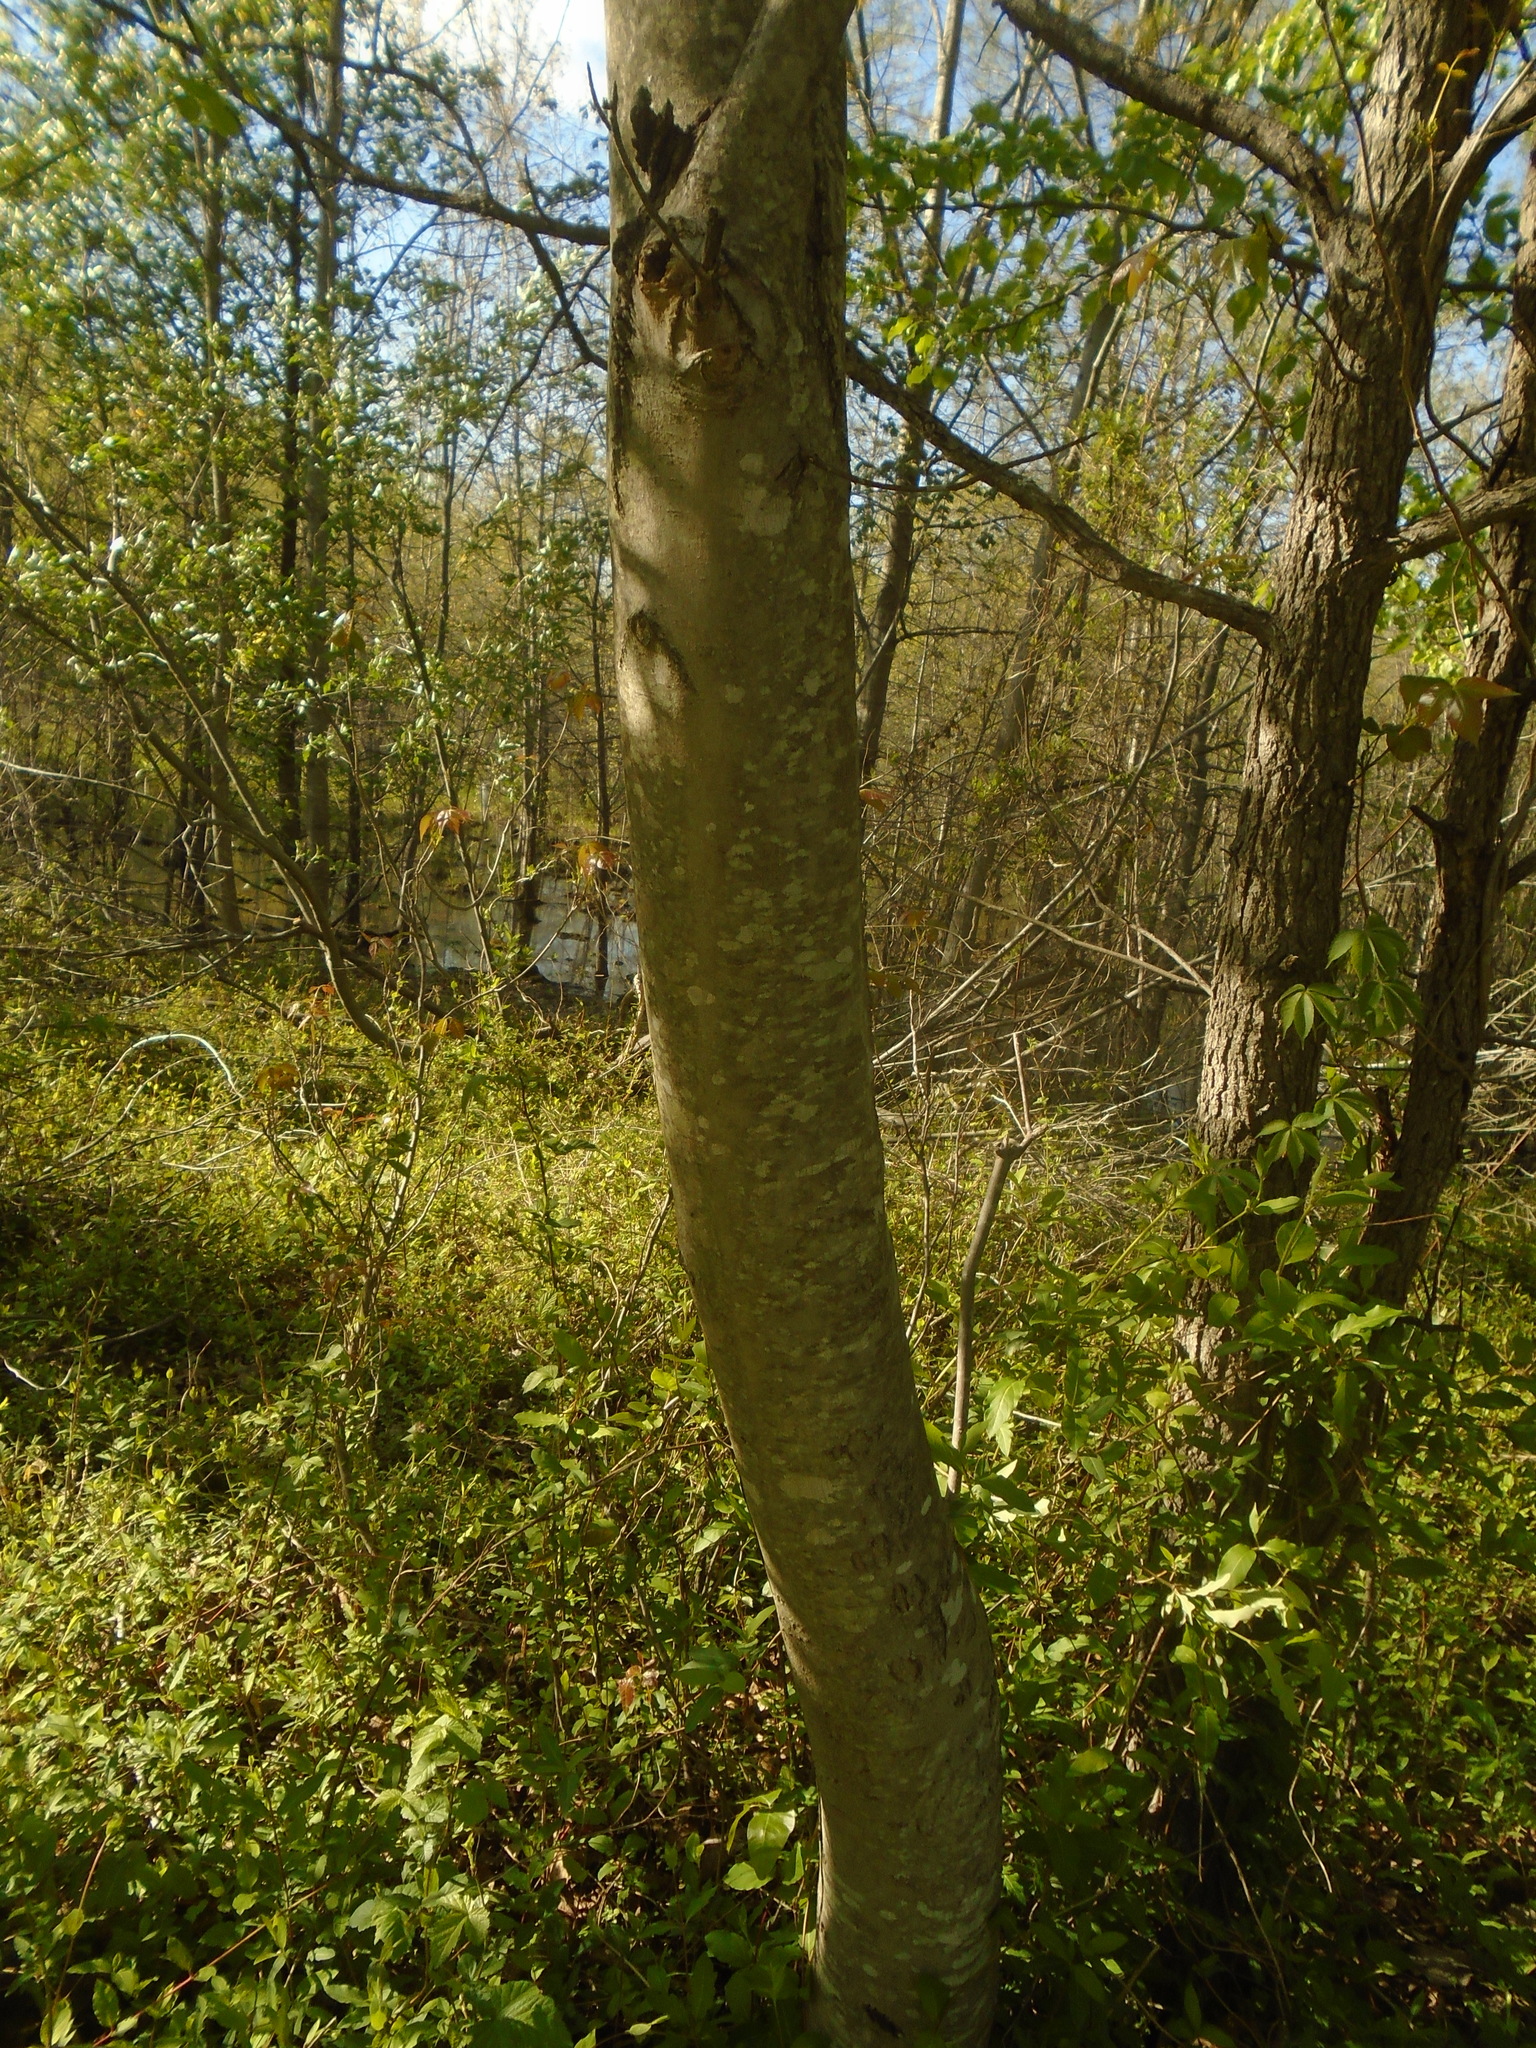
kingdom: Plantae
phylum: Tracheophyta
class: Magnoliopsida
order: Sapindales
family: Sapindaceae
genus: Acer
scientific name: Acer saccharinum
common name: Silver maple
